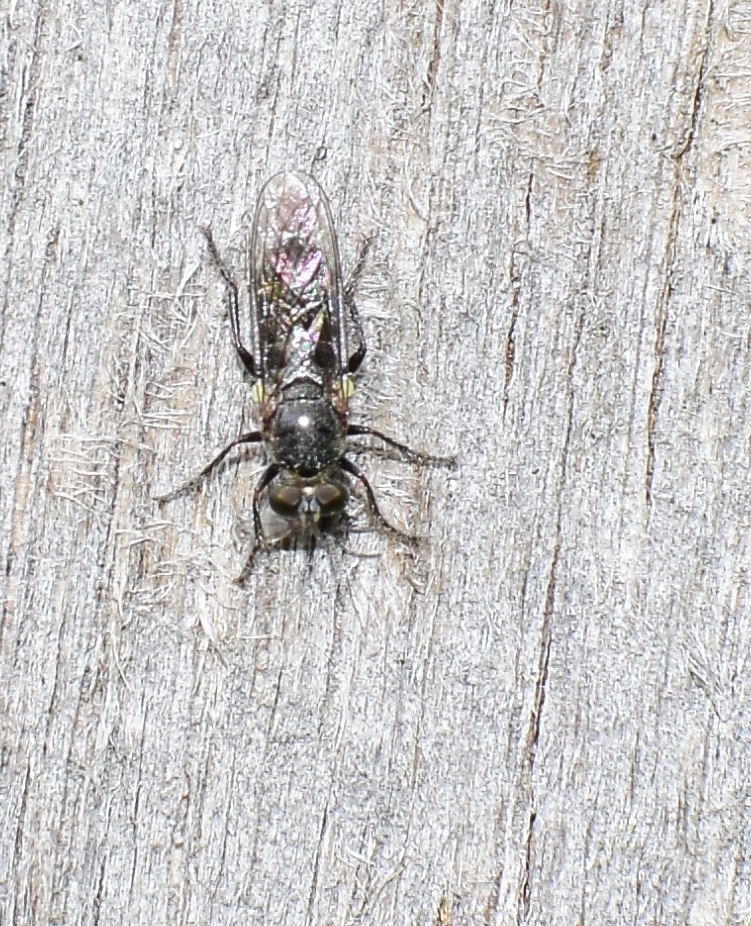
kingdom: Animalia
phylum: Arthropoda
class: Insecta
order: Diptera
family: Asilidae
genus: Atomosia
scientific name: Atomosia puella
